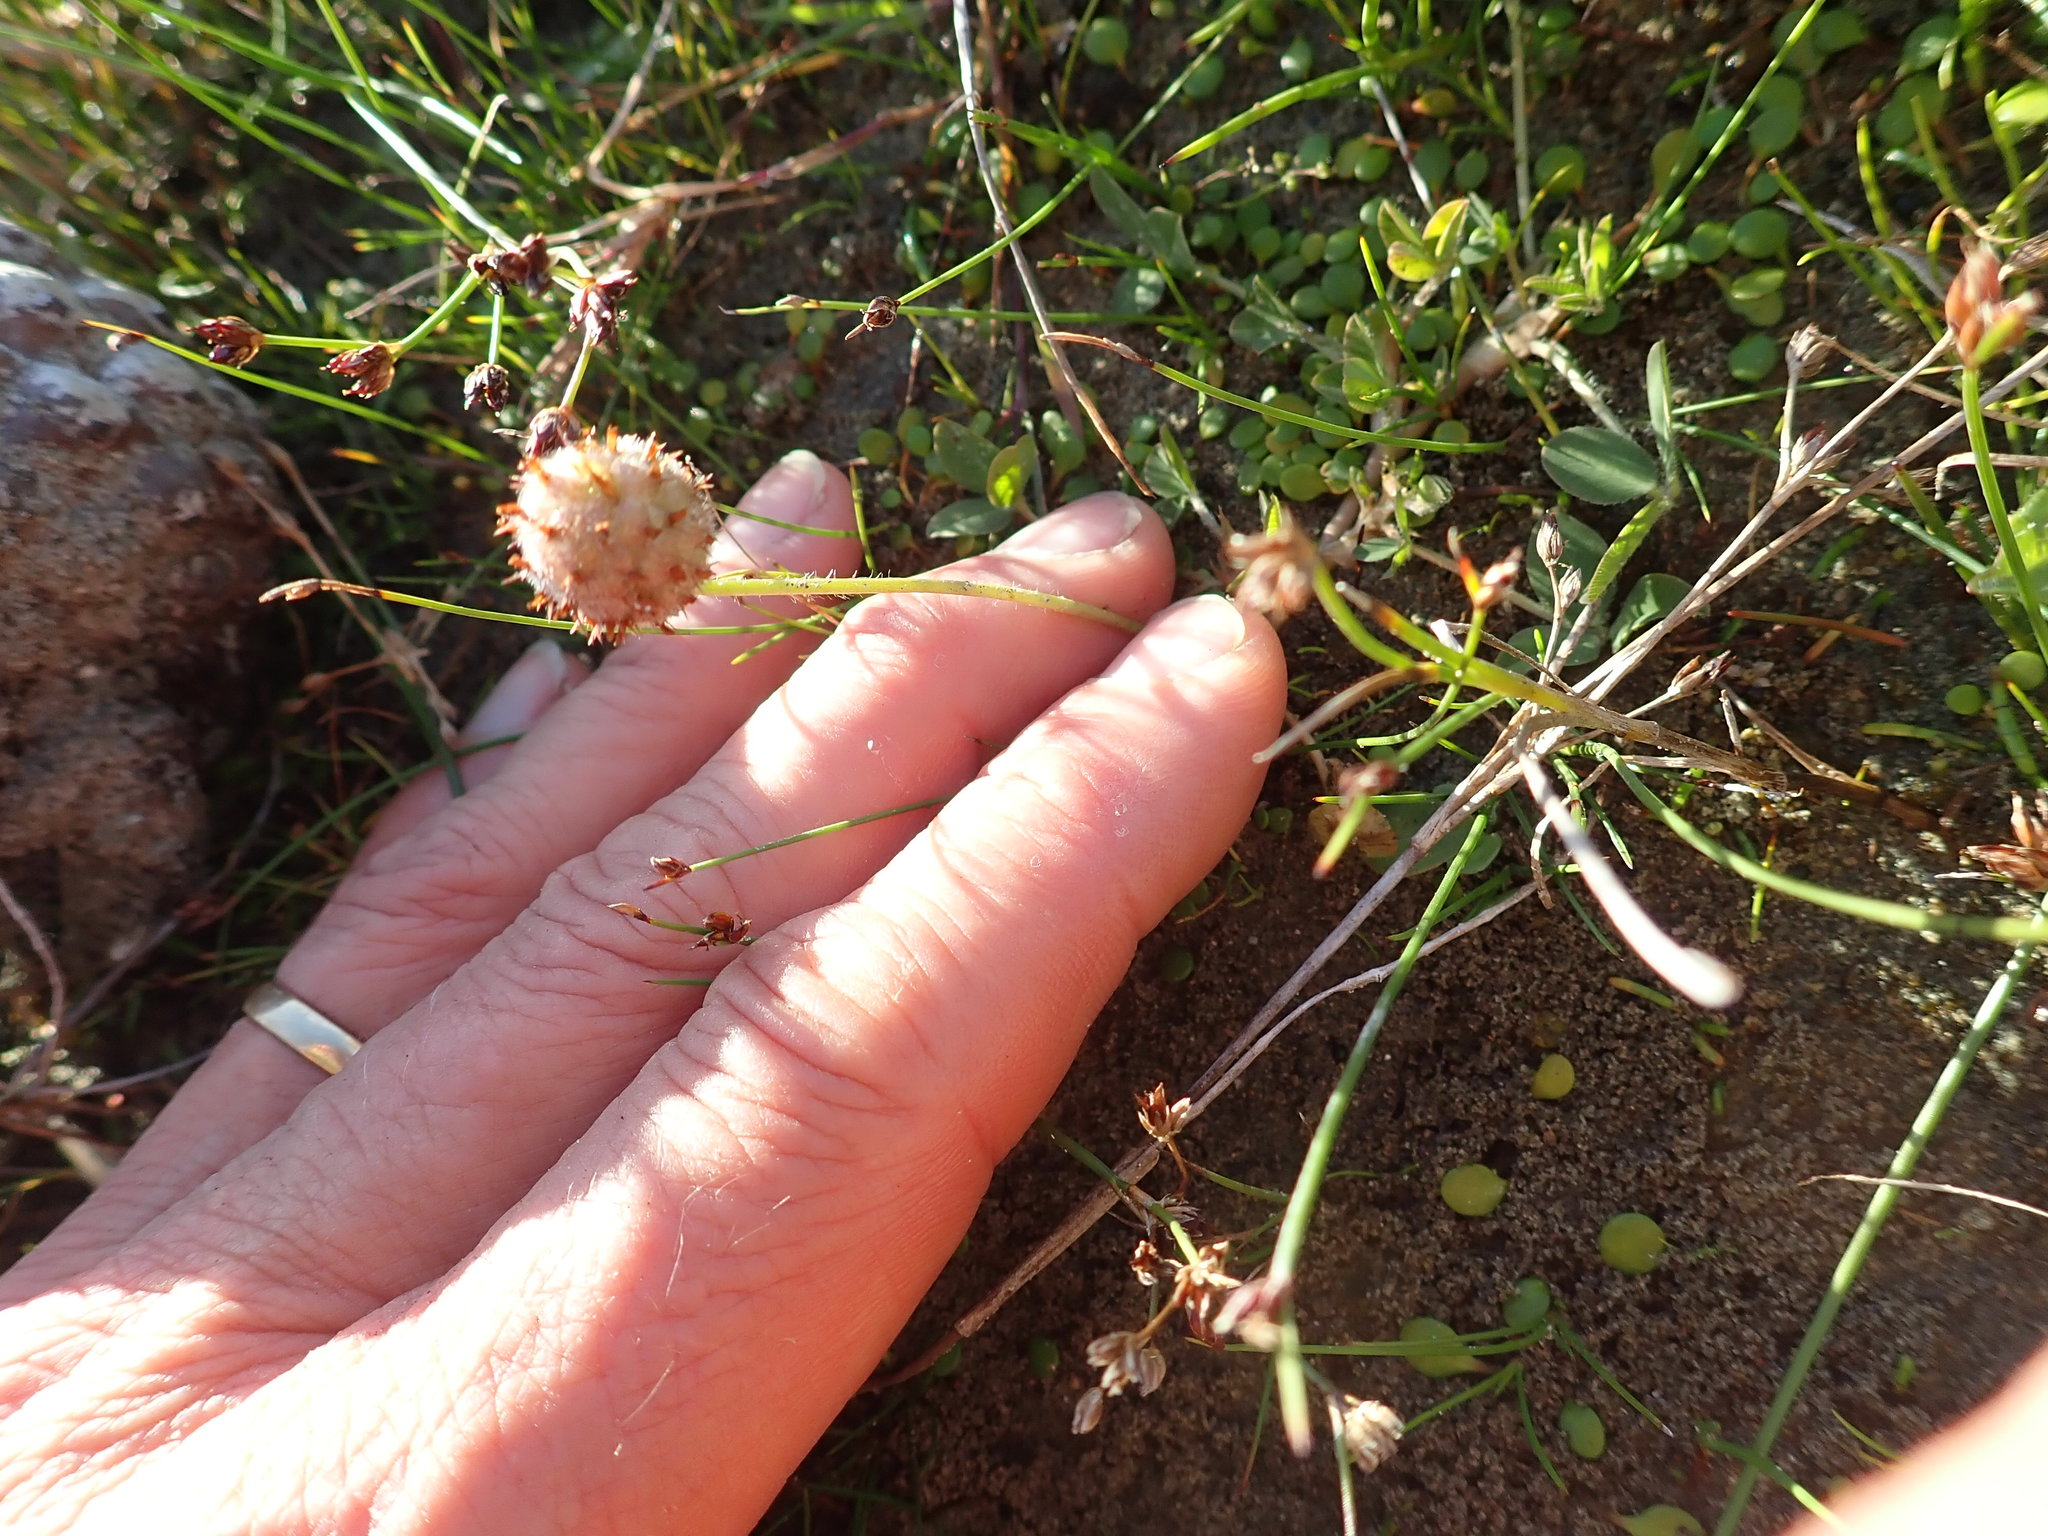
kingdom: Plantae
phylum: Tracheophyta
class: Magnoliopsida
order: Fabales
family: Fabaceae
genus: Trifolium
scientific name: Trifolium fragiferum
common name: Strawberry clover
